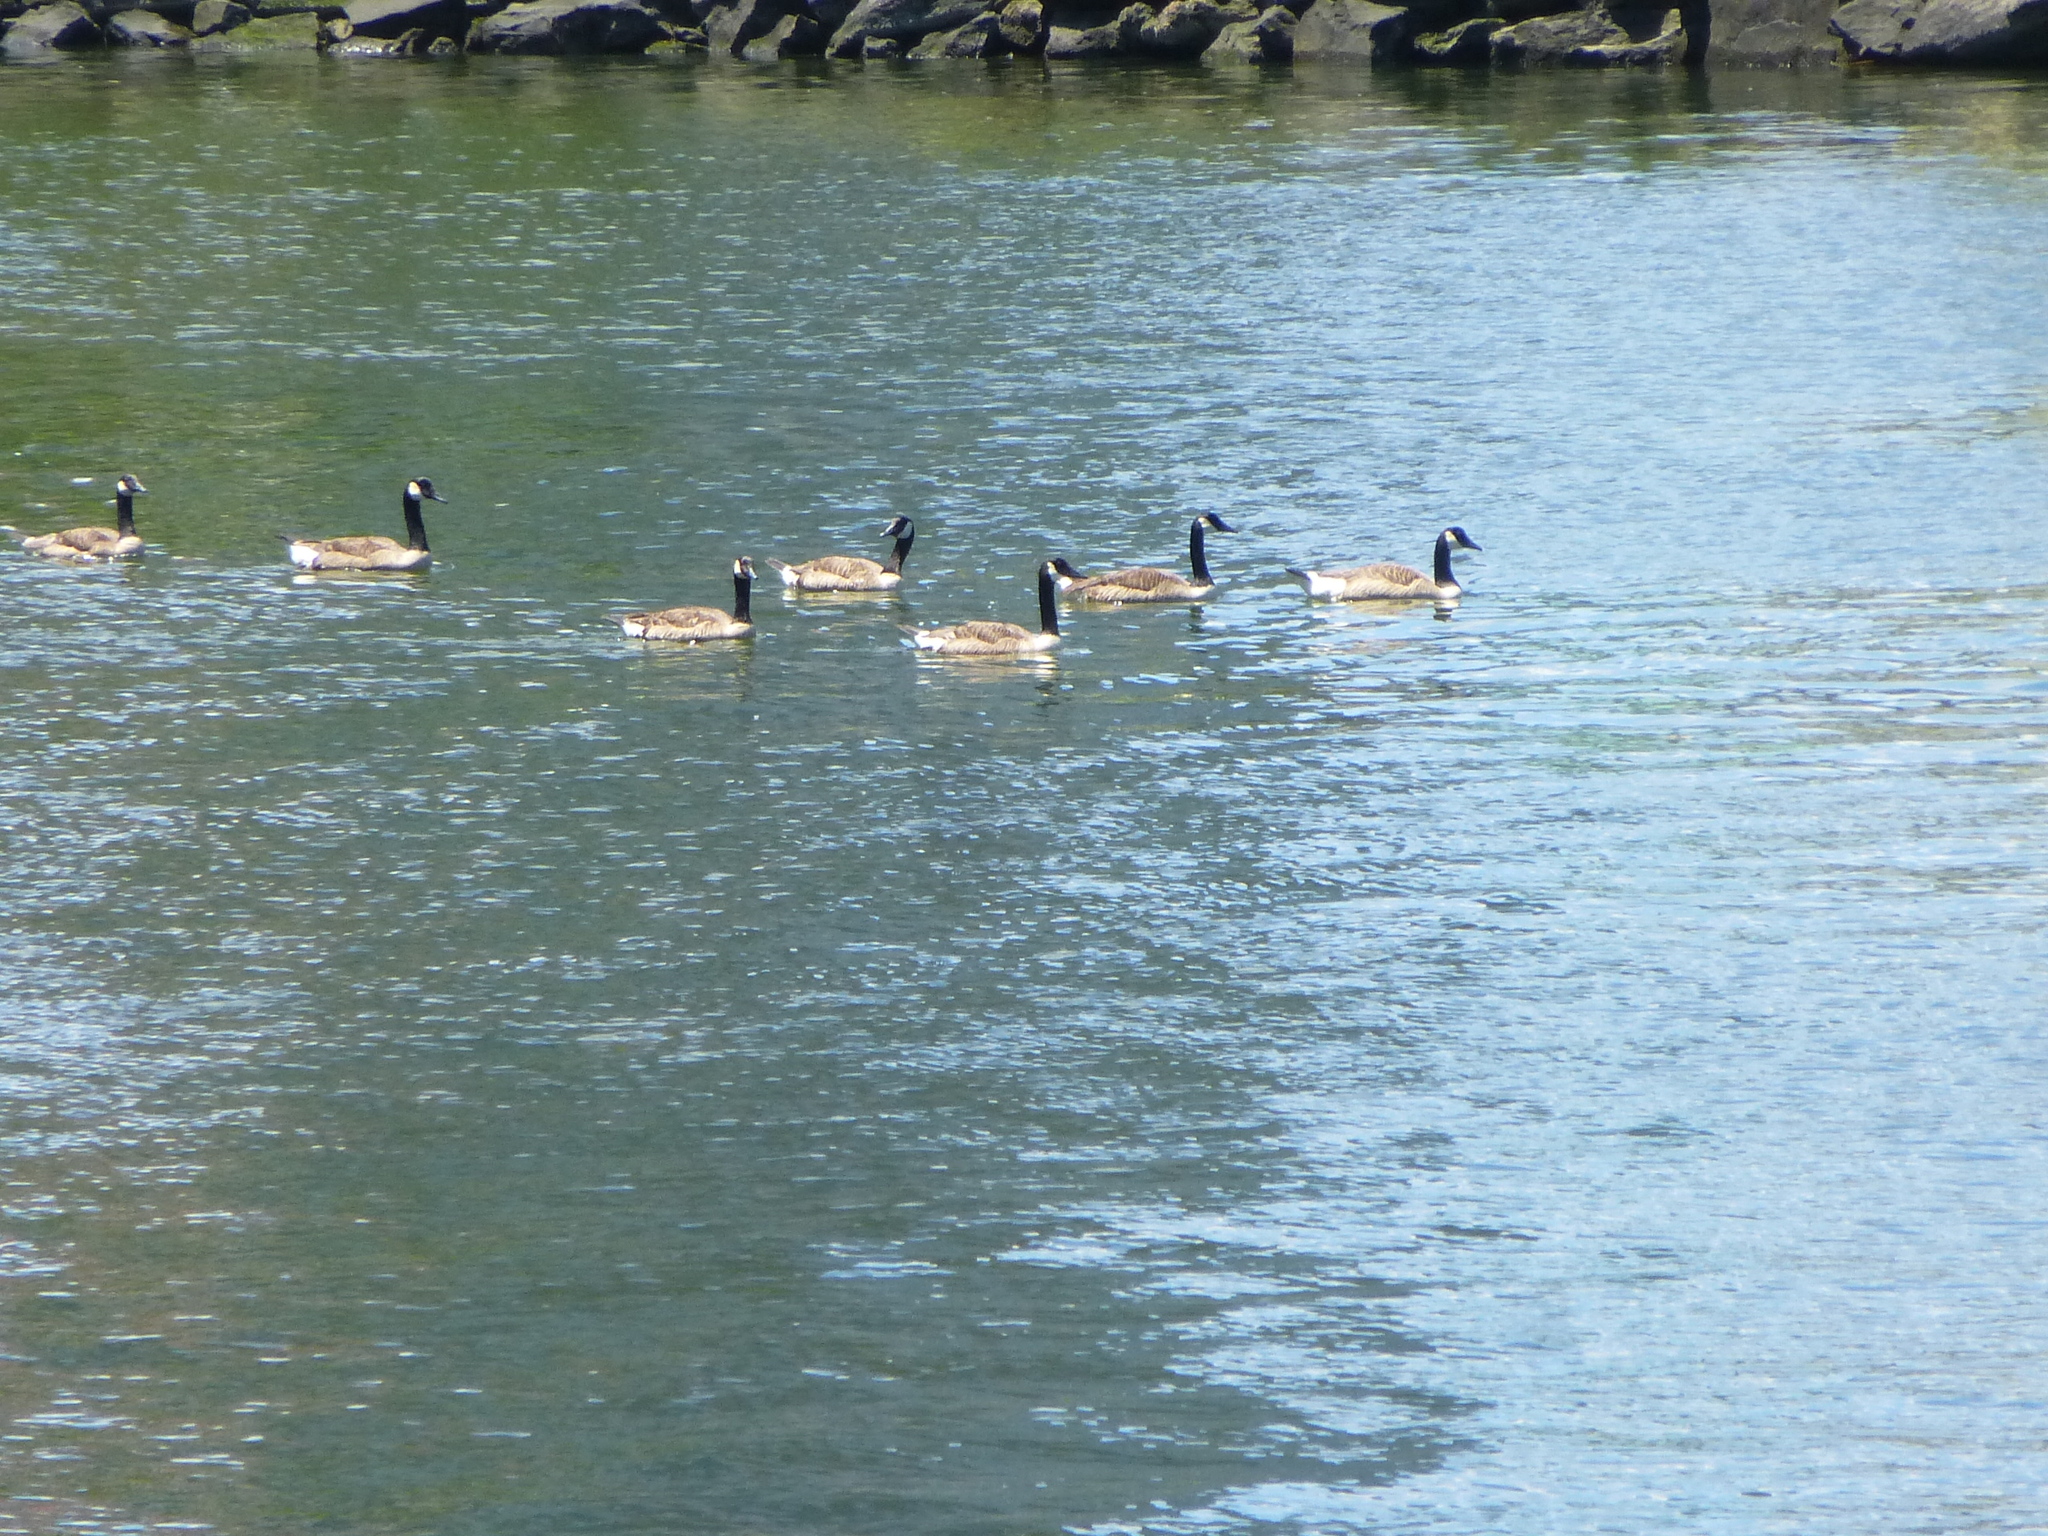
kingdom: Animalia
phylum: Chordata
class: Aves
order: Anseriformes
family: Anatidae
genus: Branta
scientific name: Branta canadensis
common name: Canada goose
